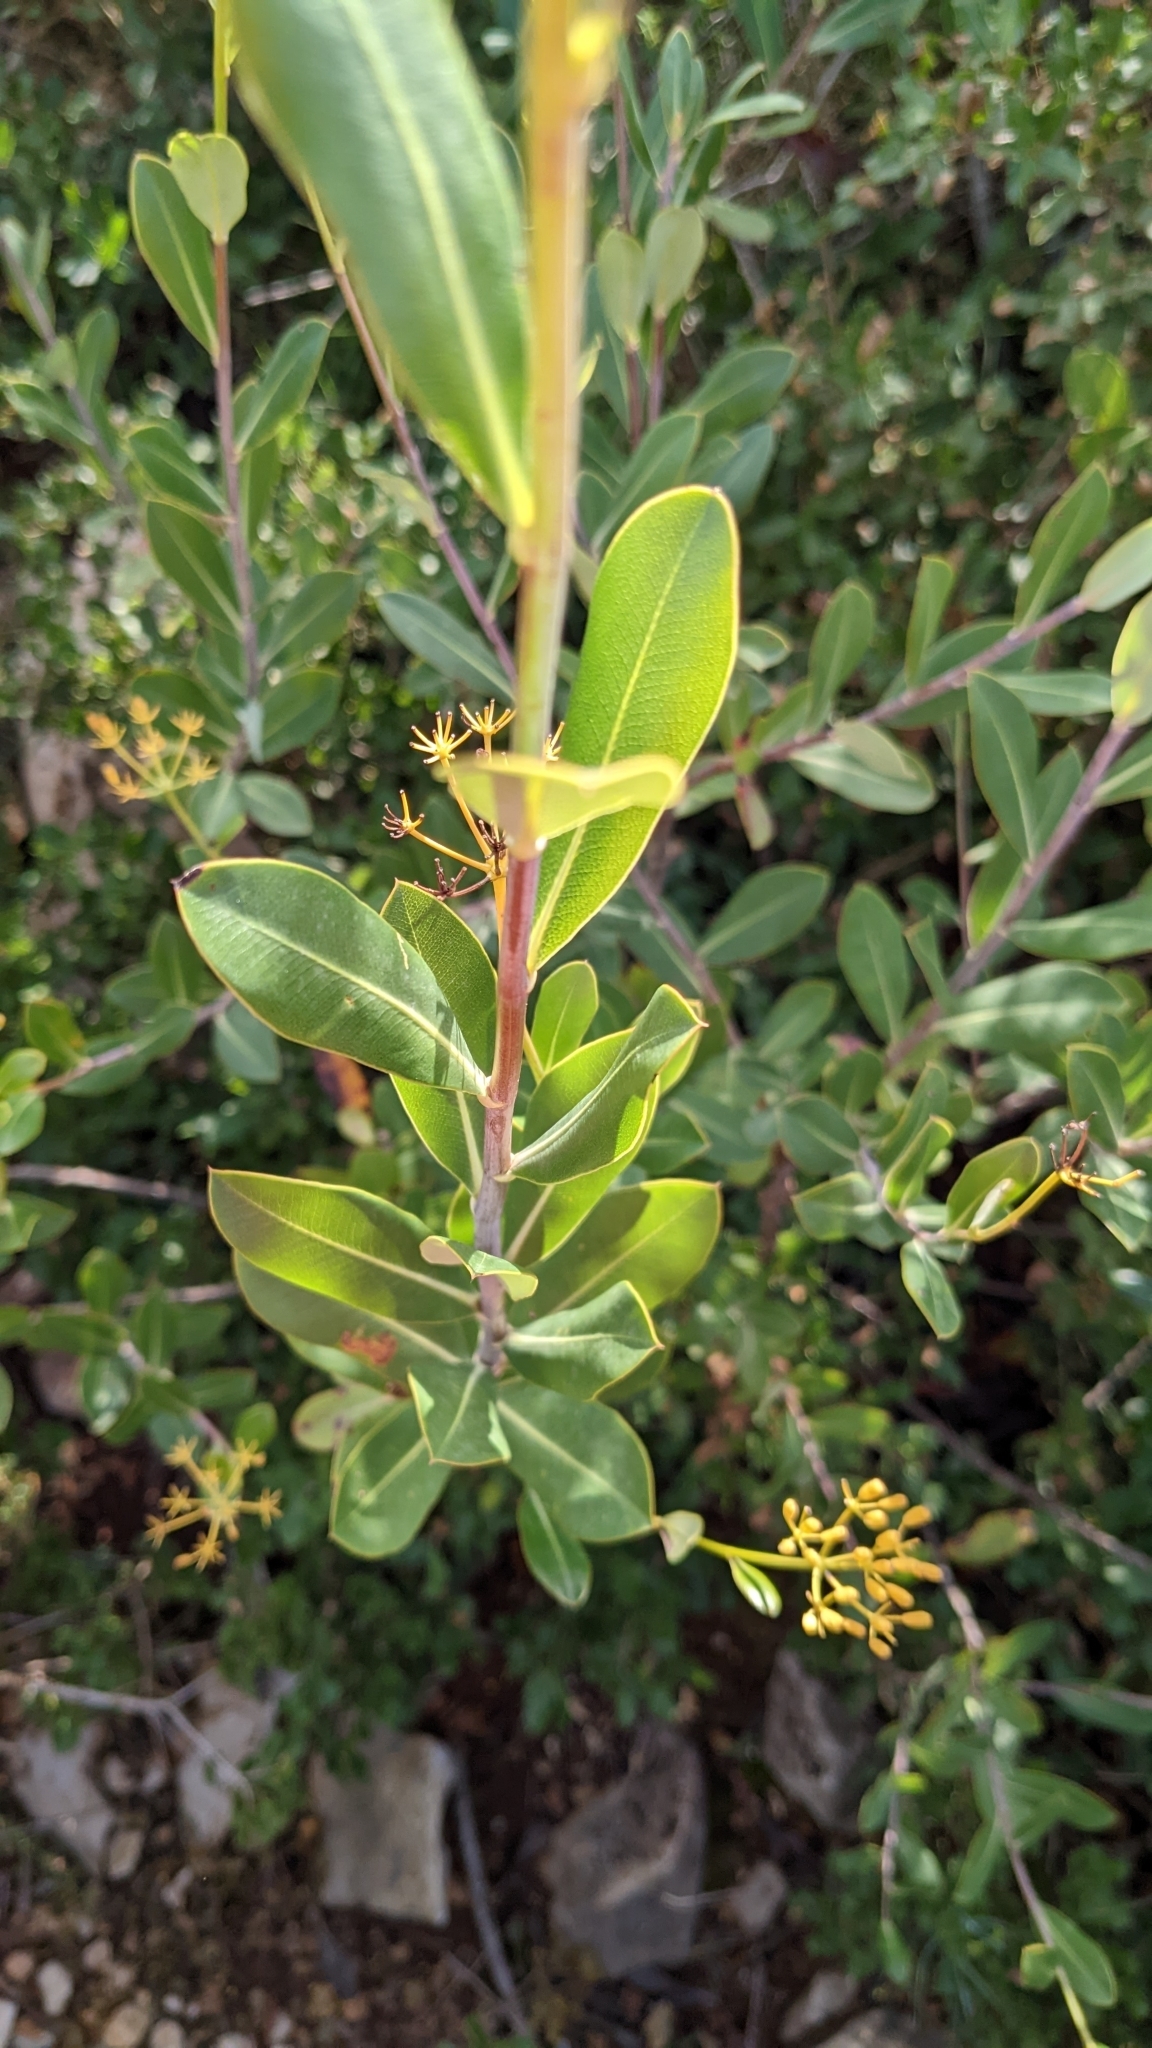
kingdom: Plantae
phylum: Tracheophyta
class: Magnoliopsida
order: Apiales
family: Apiaceae
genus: Bupleurum
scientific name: Bupleurum fruticosum
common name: Shrubby hare's-ear
